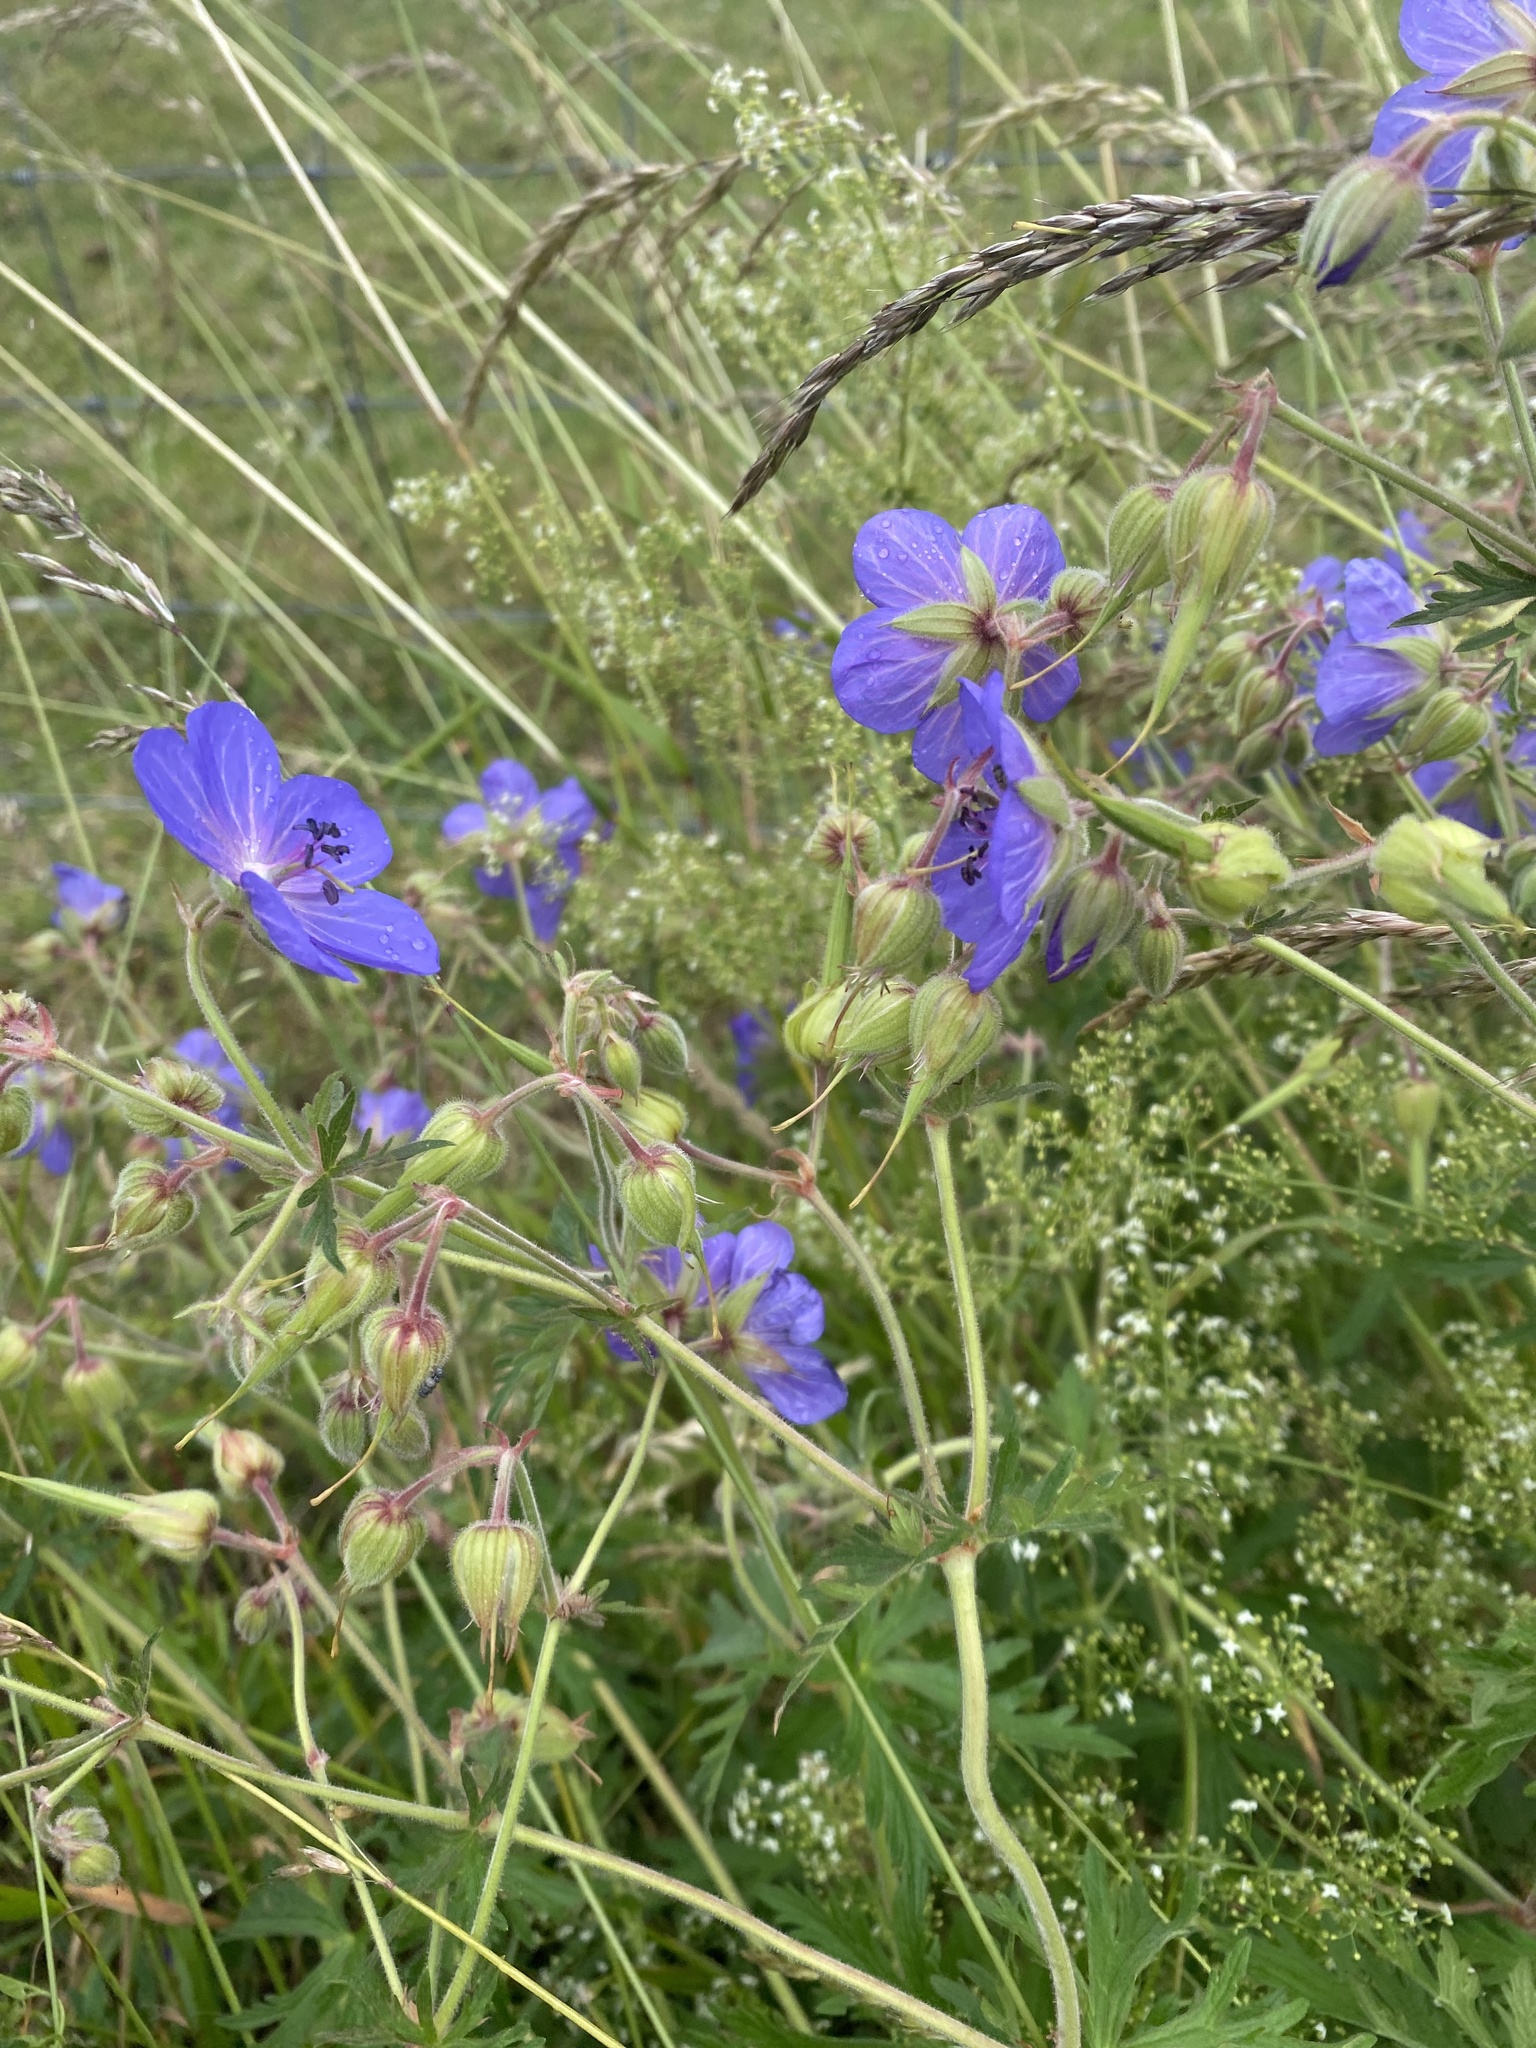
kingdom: Plantae
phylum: Tracheophyta
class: Magnoliopsida
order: Geraniales
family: Geraniaceae
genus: Geranium
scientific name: Geranium pratense
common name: Meadow crane's-bill
